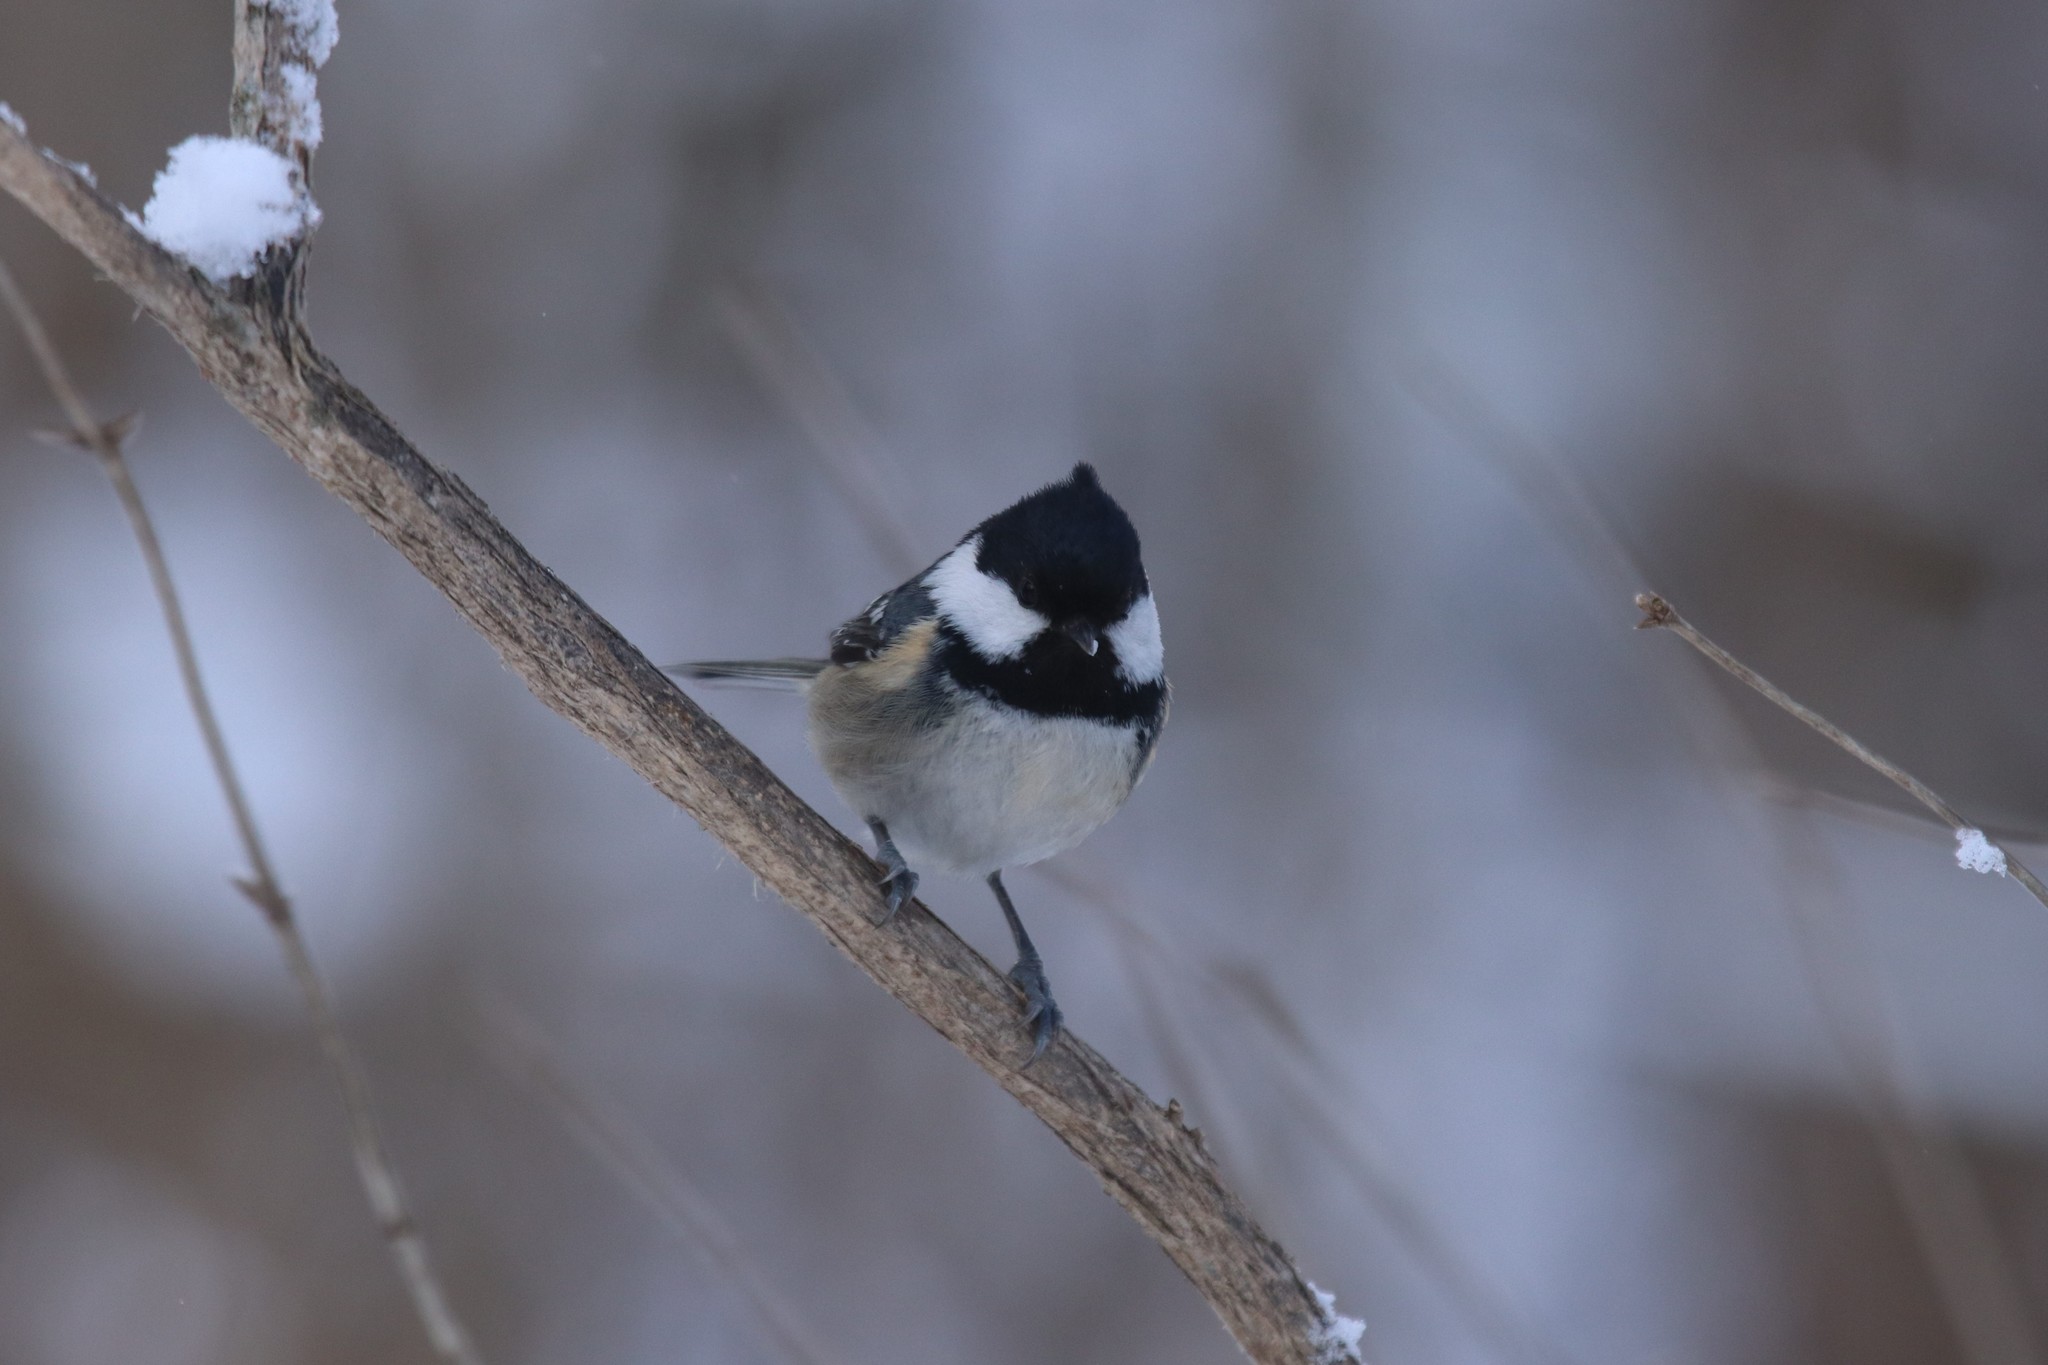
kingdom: Animalia
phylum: Chordata
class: Aves
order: Passeriformes
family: Paridae
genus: Periparus
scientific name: Periparus ater
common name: Coal tit
